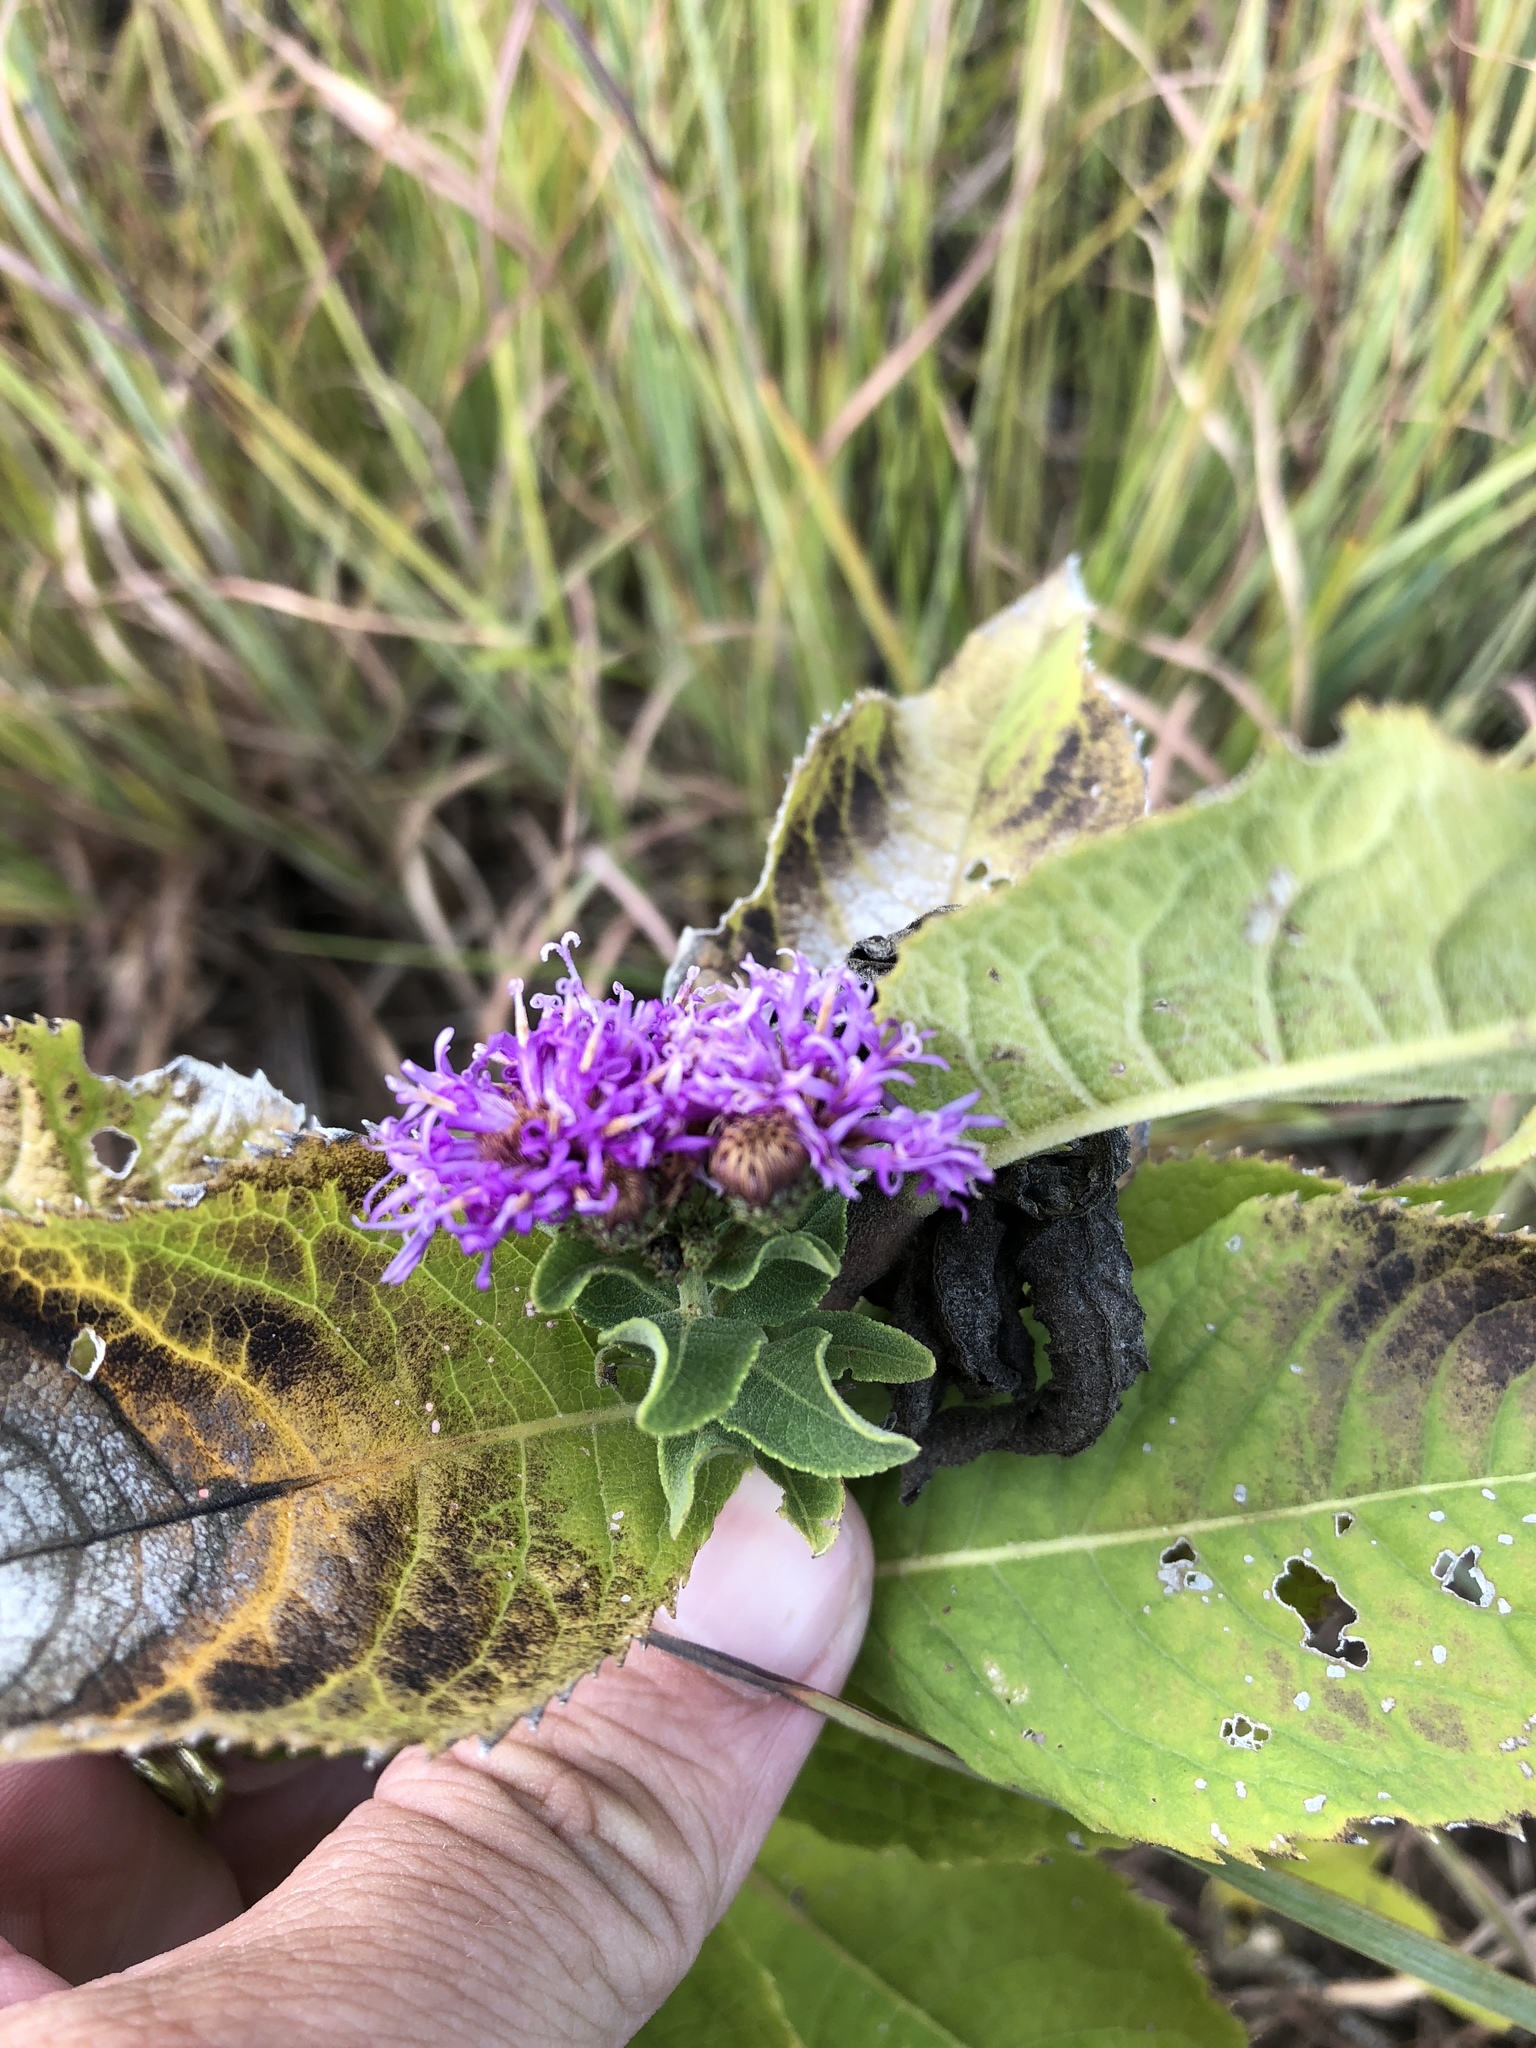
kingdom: Plantae
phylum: Tracheophyta
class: Magnoliopsida
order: Asterales
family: Asteraceae
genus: Vernonia
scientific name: Vernonia baldwinii
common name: Western ironweed
